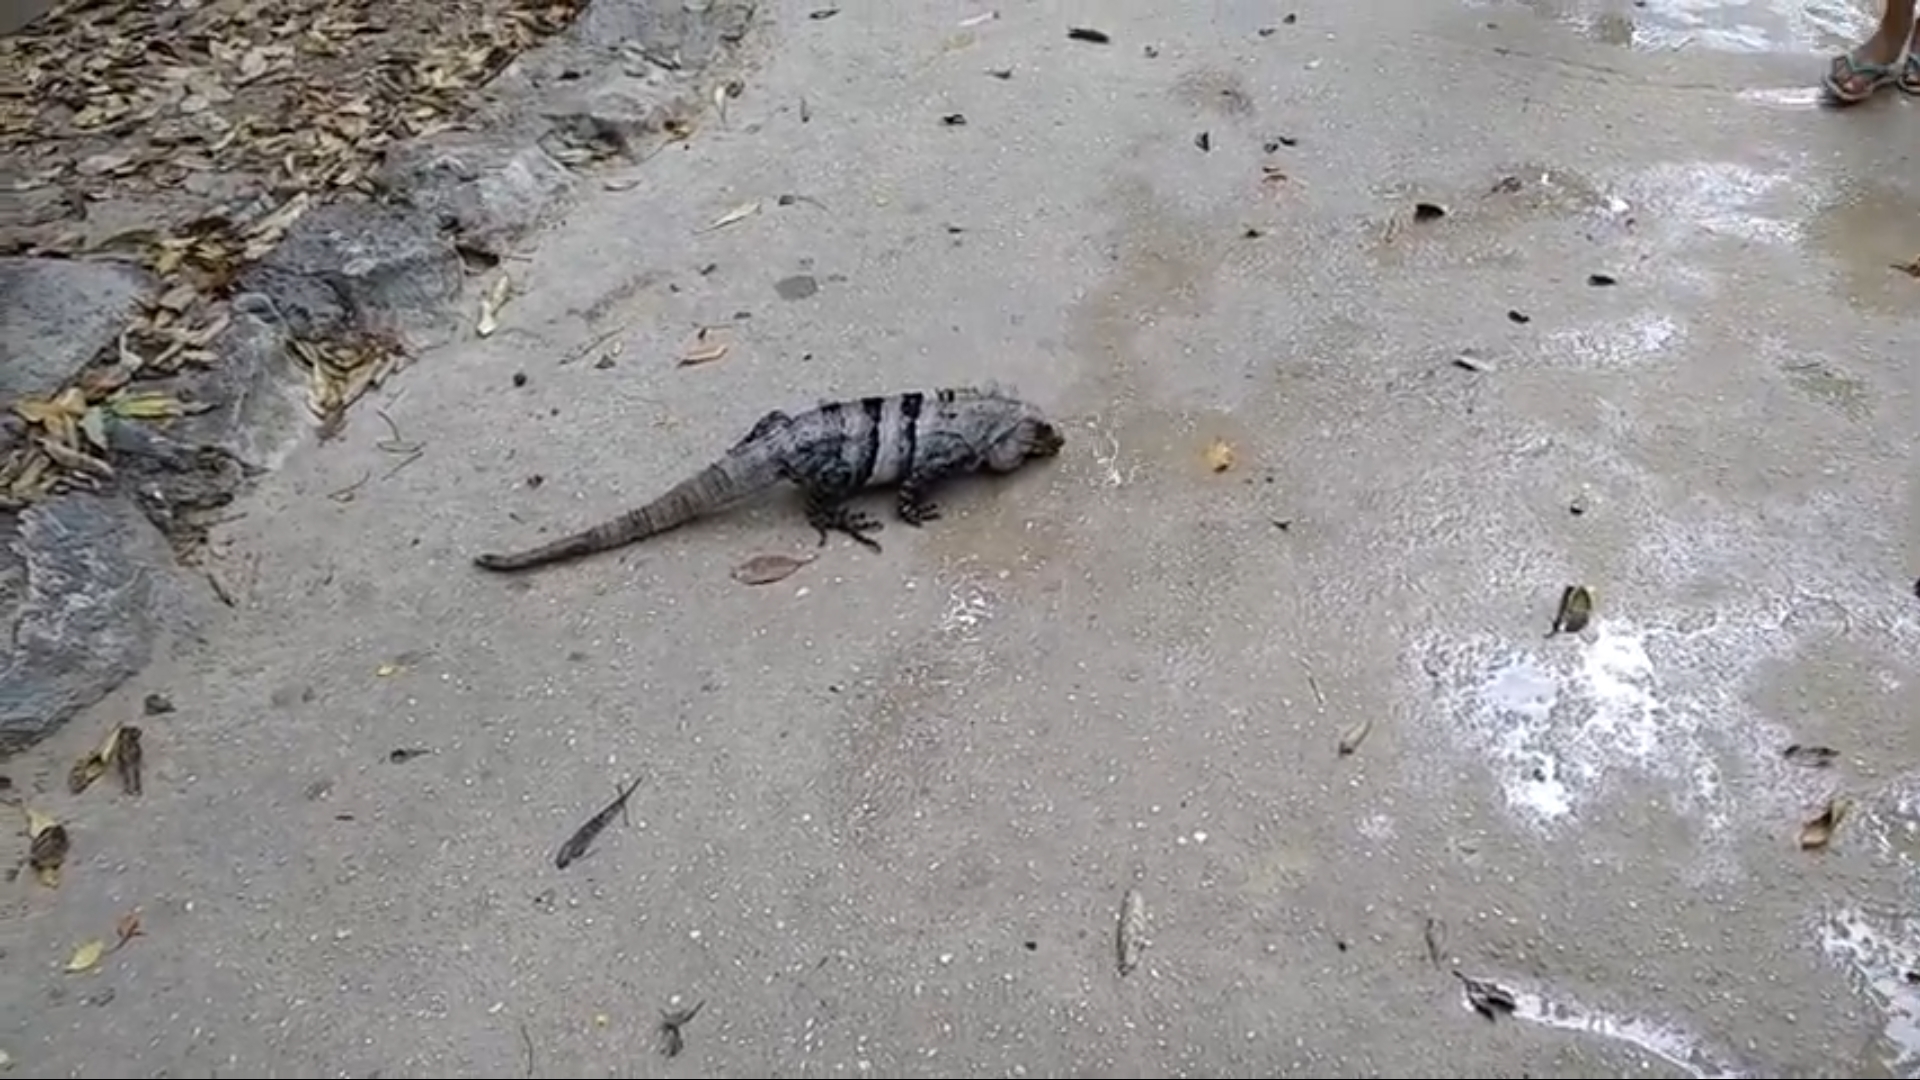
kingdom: Animalia
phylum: Chordata
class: Squamata
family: Iguanidae
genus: Ctenosaura
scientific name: Ctenosaura similis
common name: Black spiny-tailed iguana
